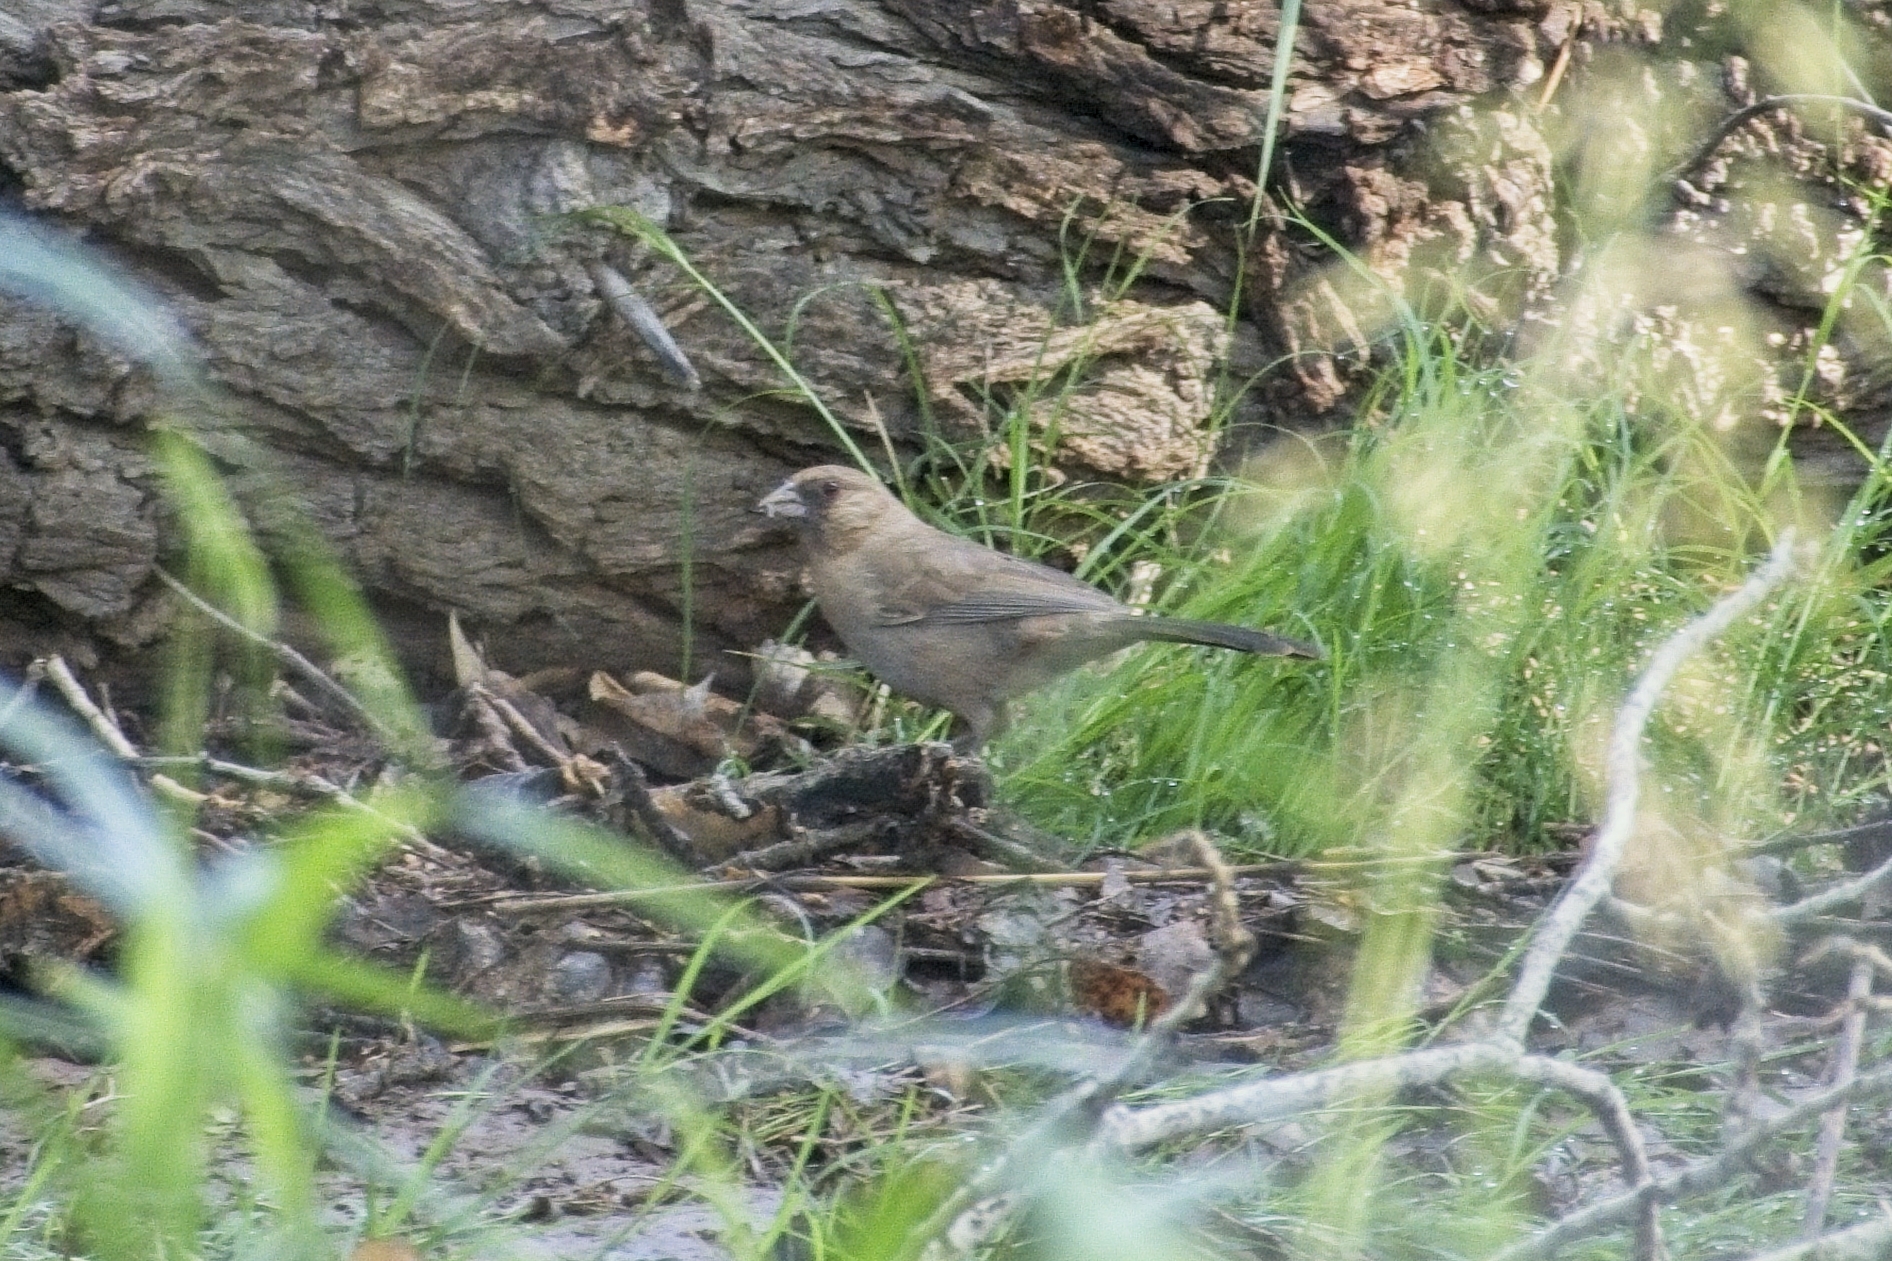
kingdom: Animalia
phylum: Chordata
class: Aves
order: Passeriformes
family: Passerellidae
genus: Melozone
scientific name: Melozone aberti
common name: Abert's towhee
